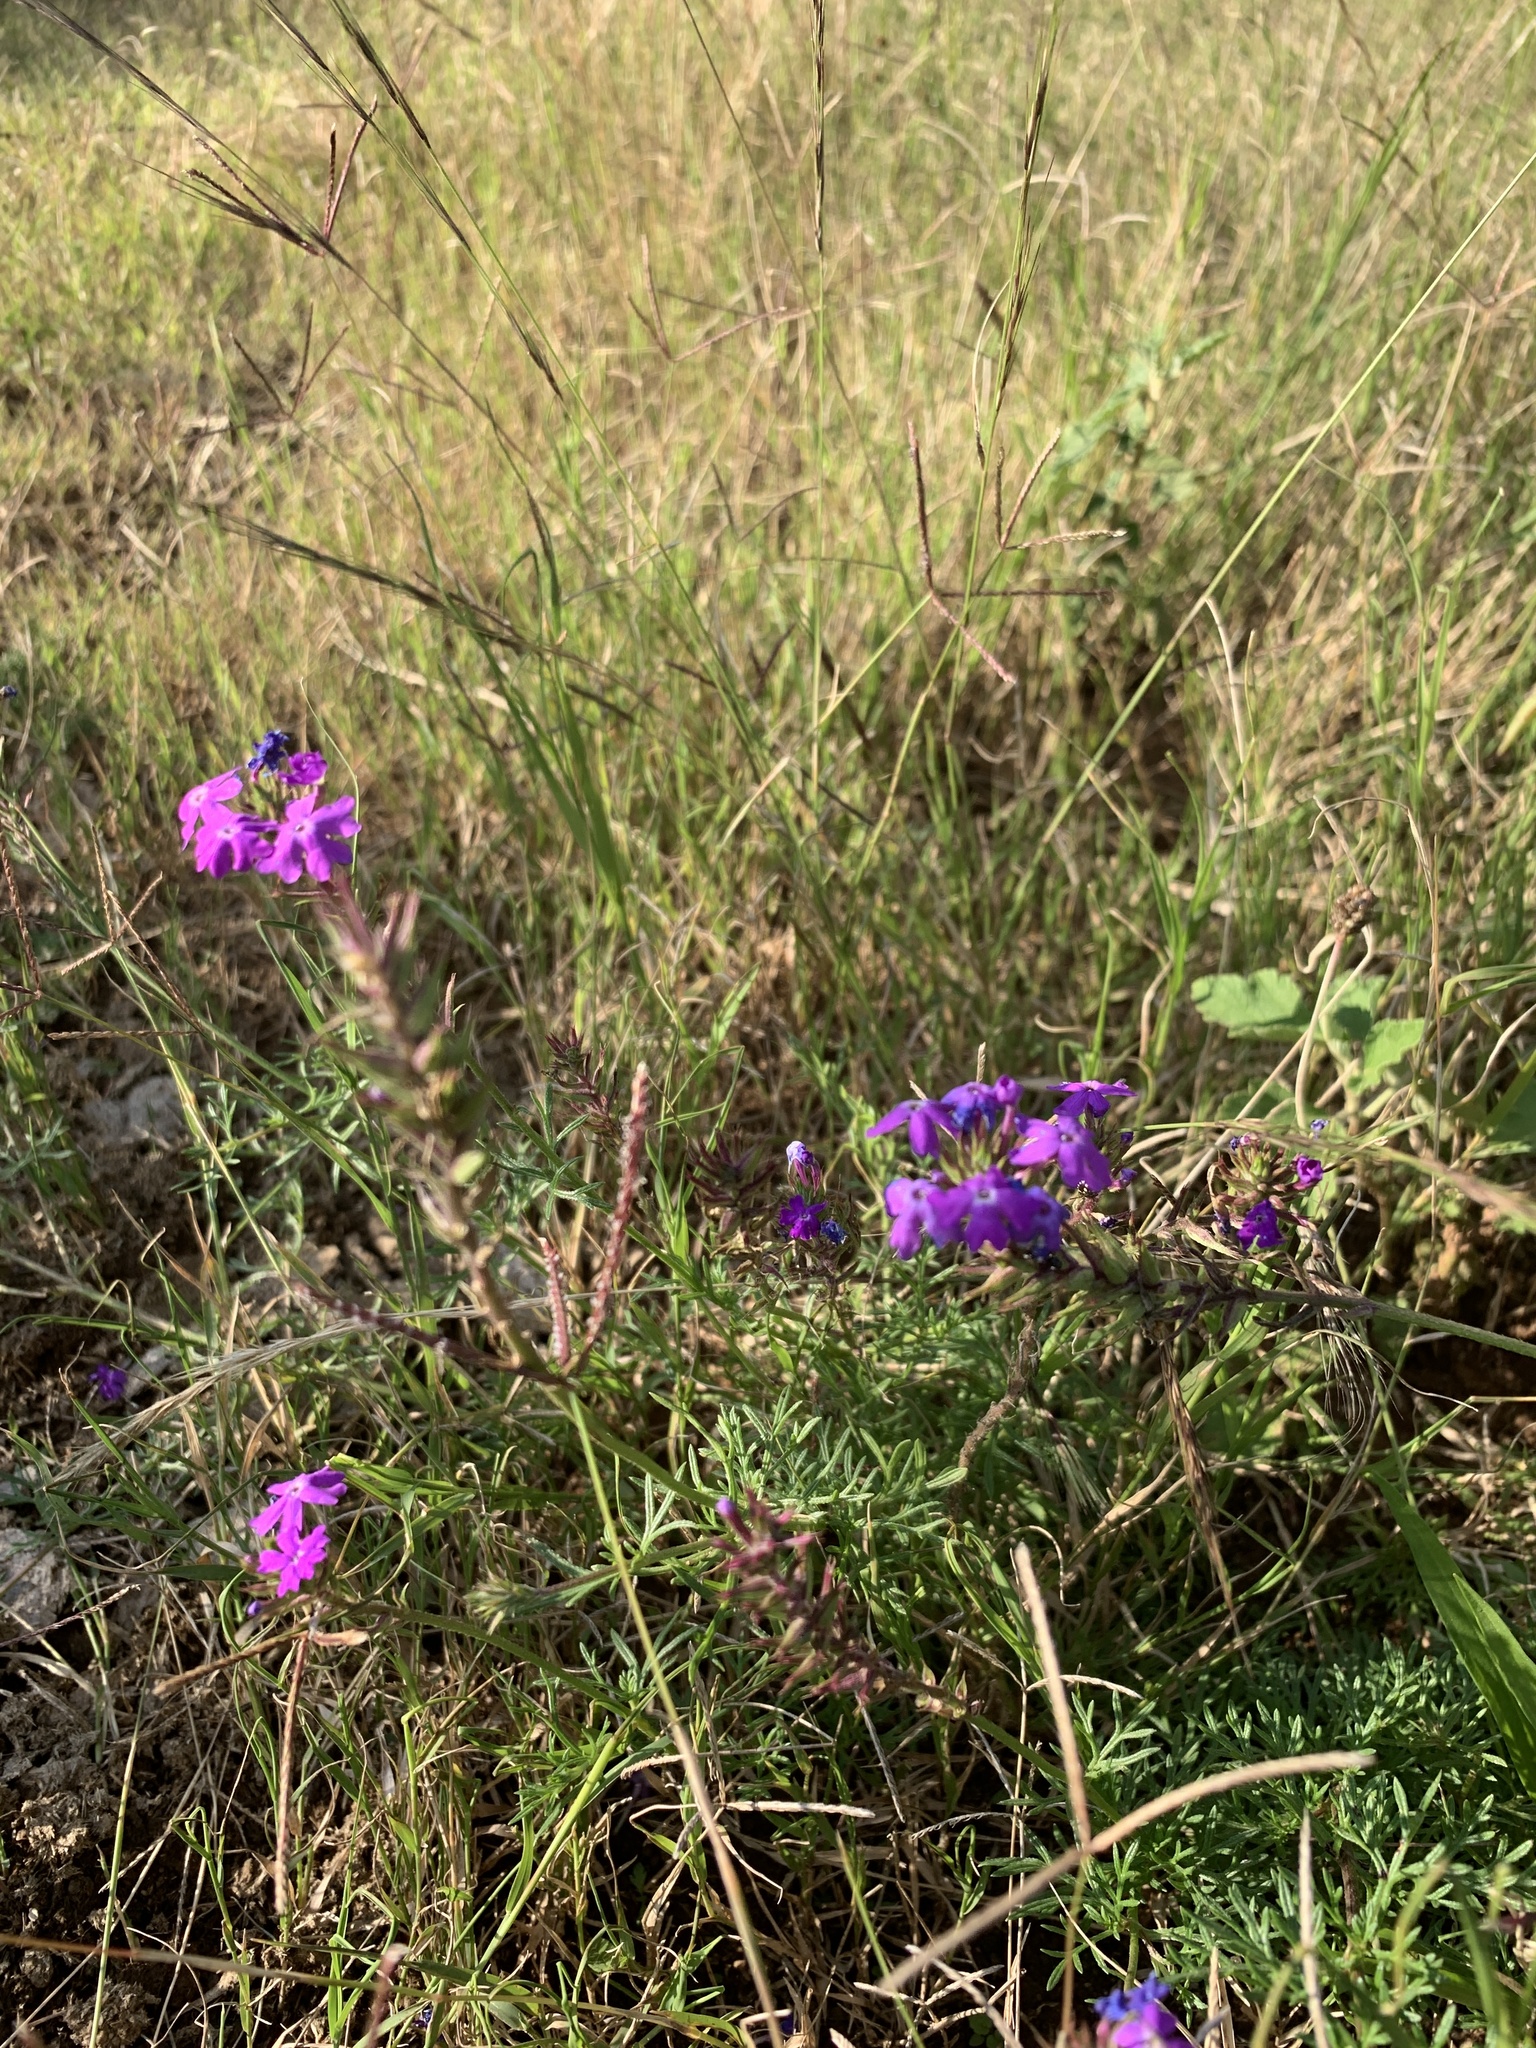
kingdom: Plantae
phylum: Tracheophyta
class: Magnoliopsida
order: Lamiales
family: Verbenaceae
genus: Verbena
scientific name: Verbena aristigera
